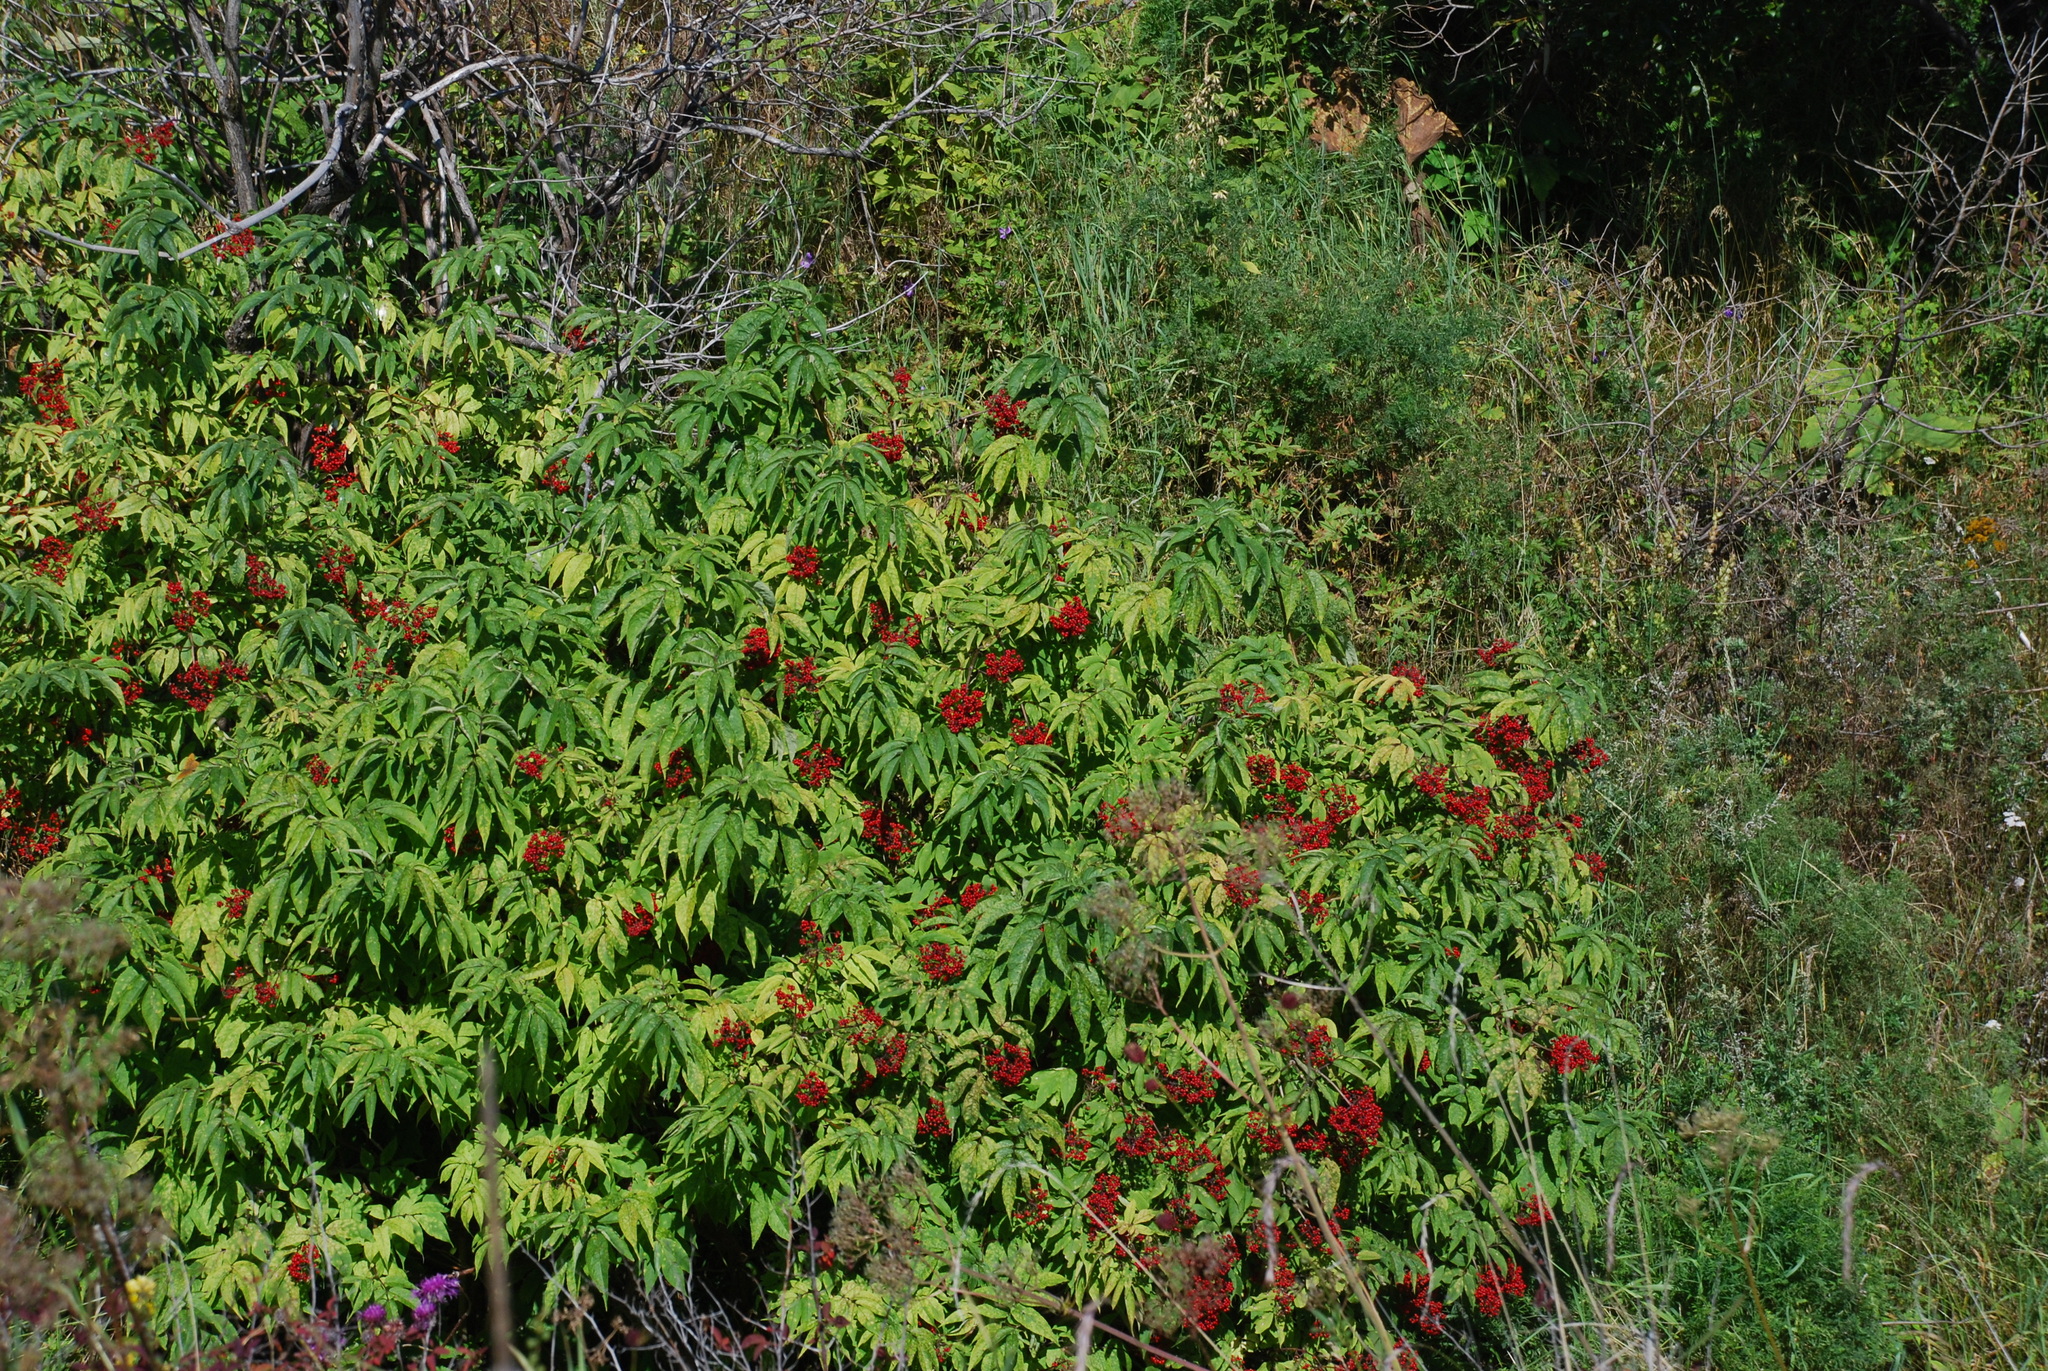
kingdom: Plantae
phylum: Tracheophyta
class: Magnoliopsida
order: Dipsacales
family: Viburnaceae
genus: Sambucus
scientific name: Sambucus sibirica
